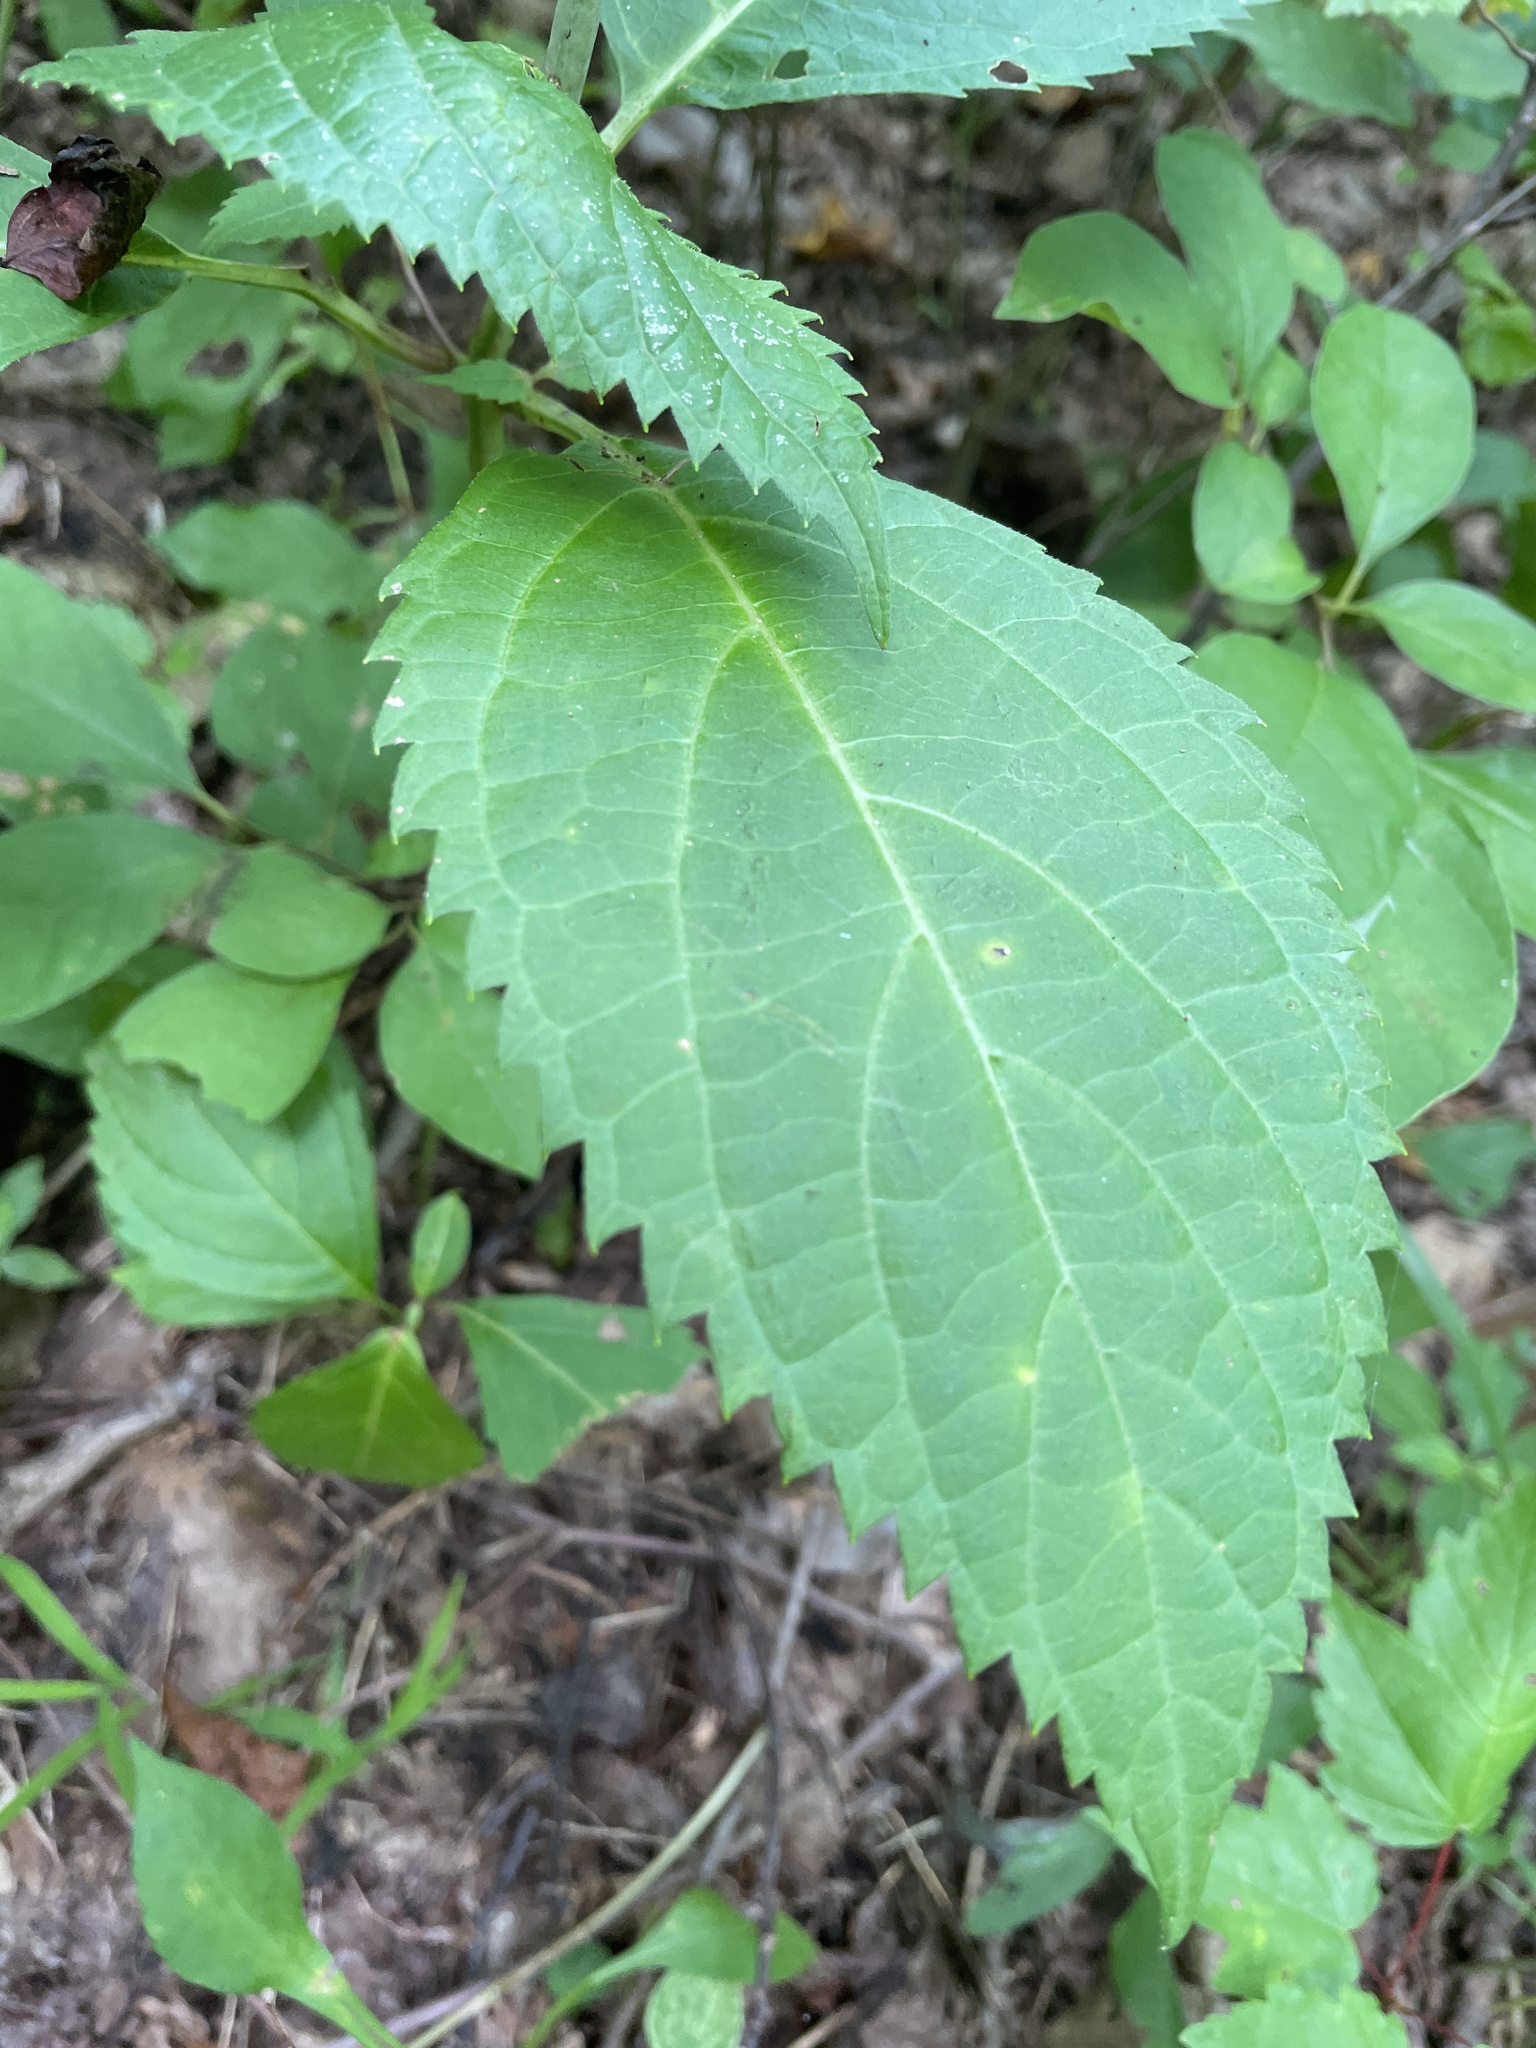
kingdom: Plantae
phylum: Tracheophyta
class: Magnoliopsida
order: Lamiales
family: Lamiaceae
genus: Collinsonia
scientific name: Collinsonia canadensis
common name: Northern horsebalm
